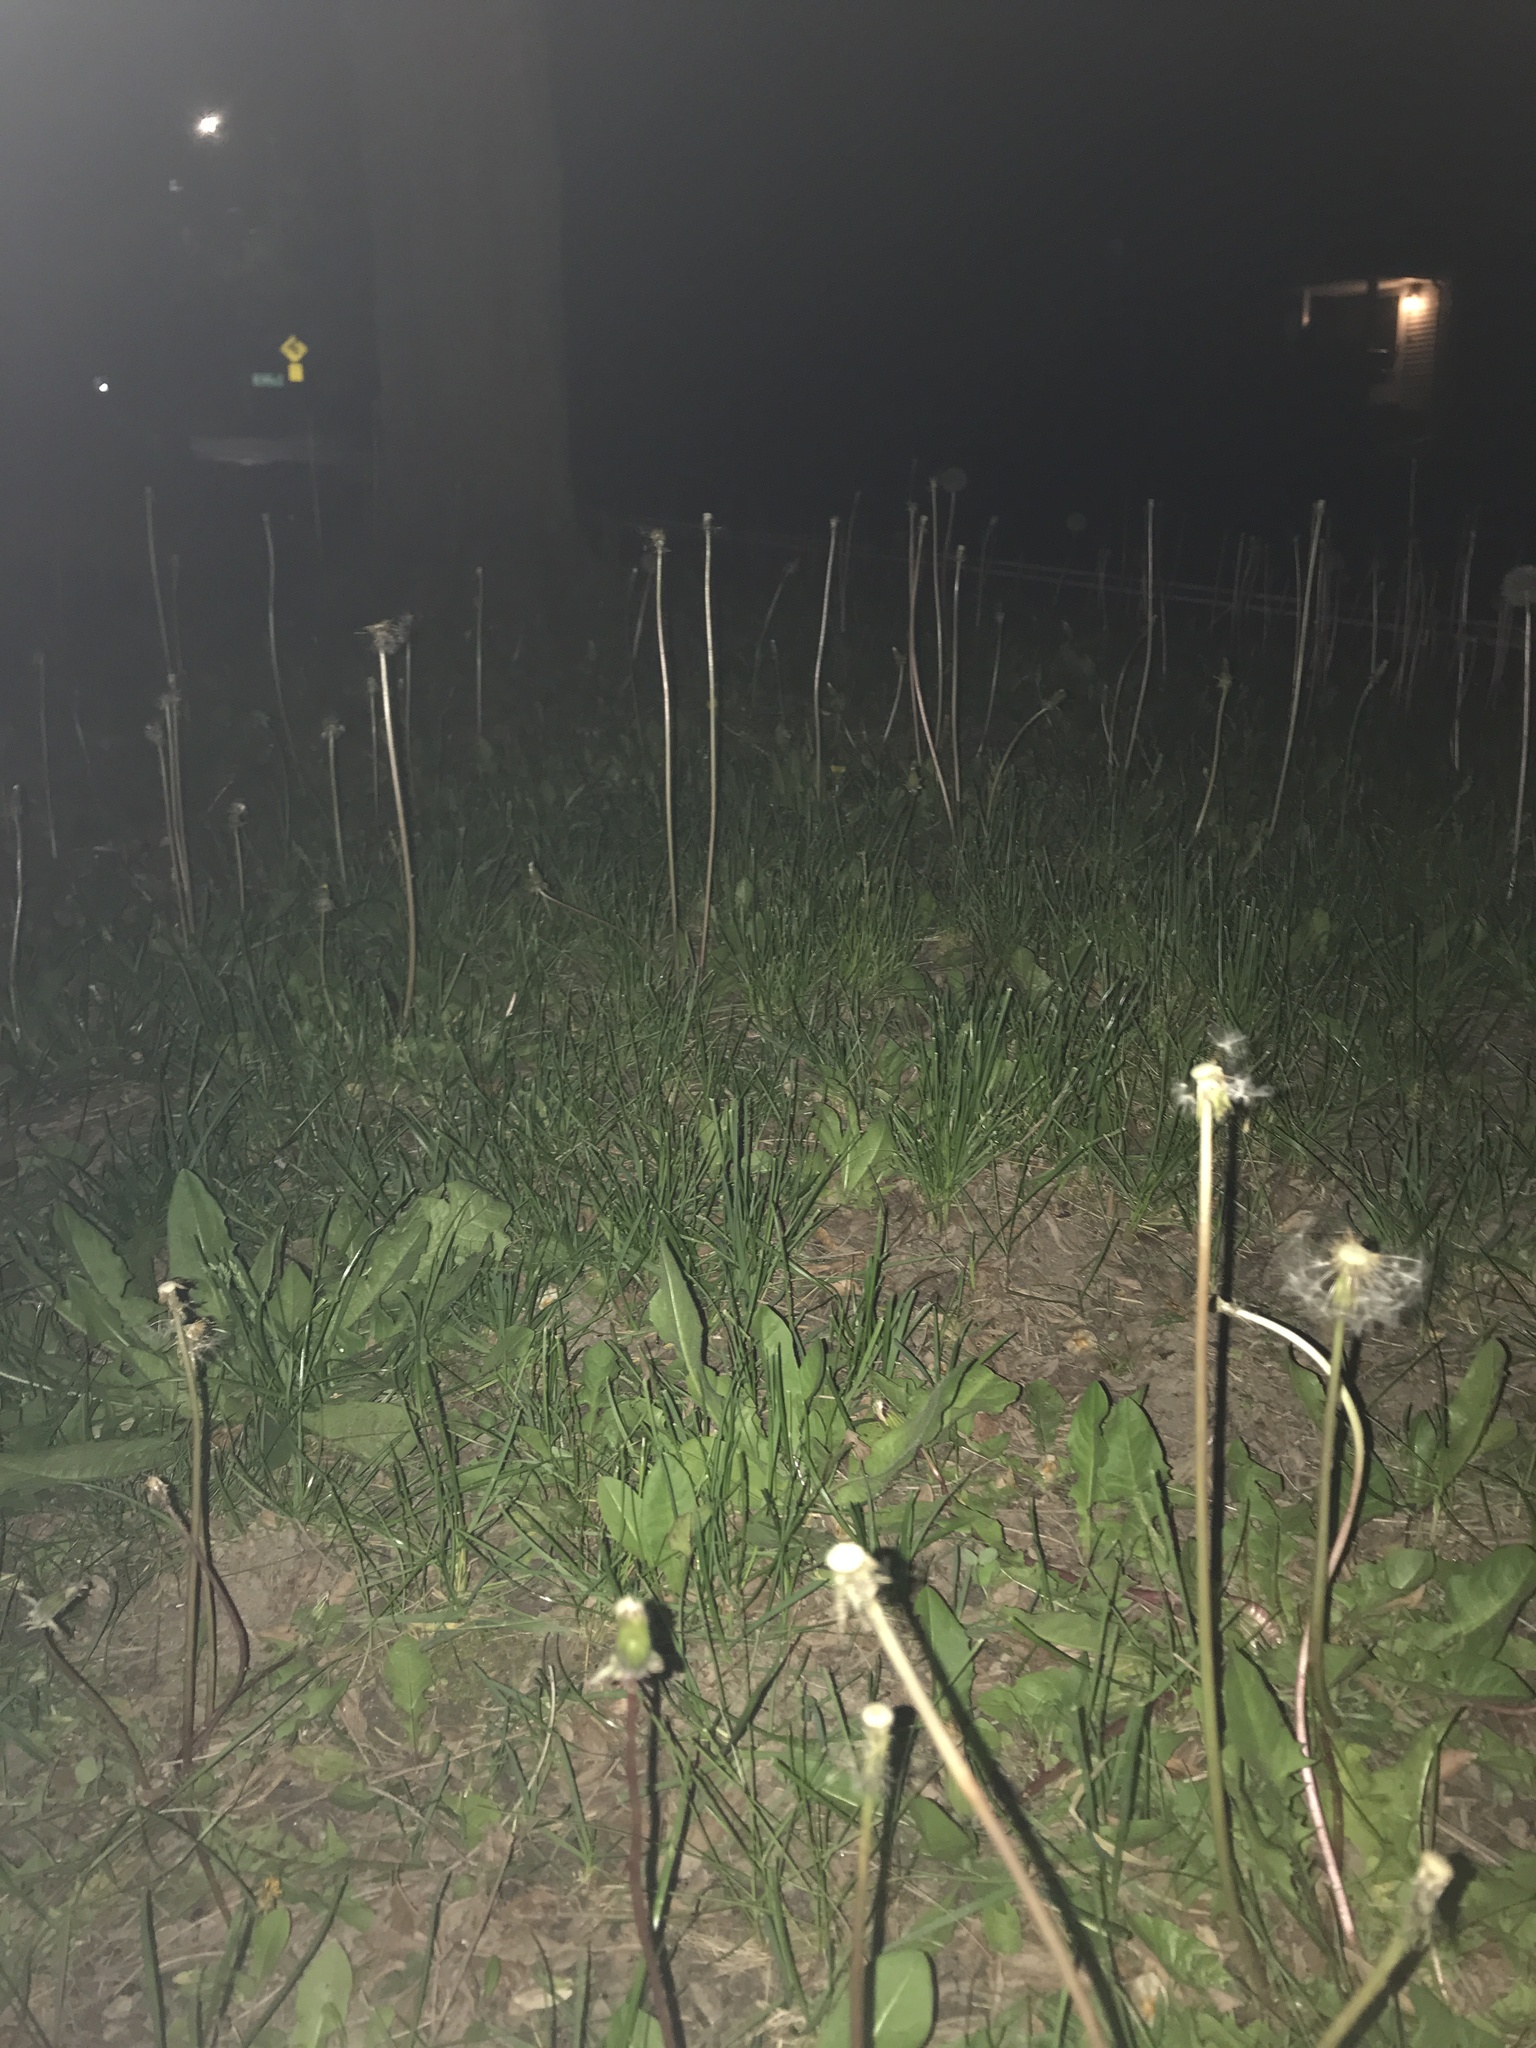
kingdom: Plantae
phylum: Tracheophyta
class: Magnoliopsida
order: Asterales
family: Asteraceae
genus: Taraxacum
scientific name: Taraxacum officinale
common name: Common dandelion
